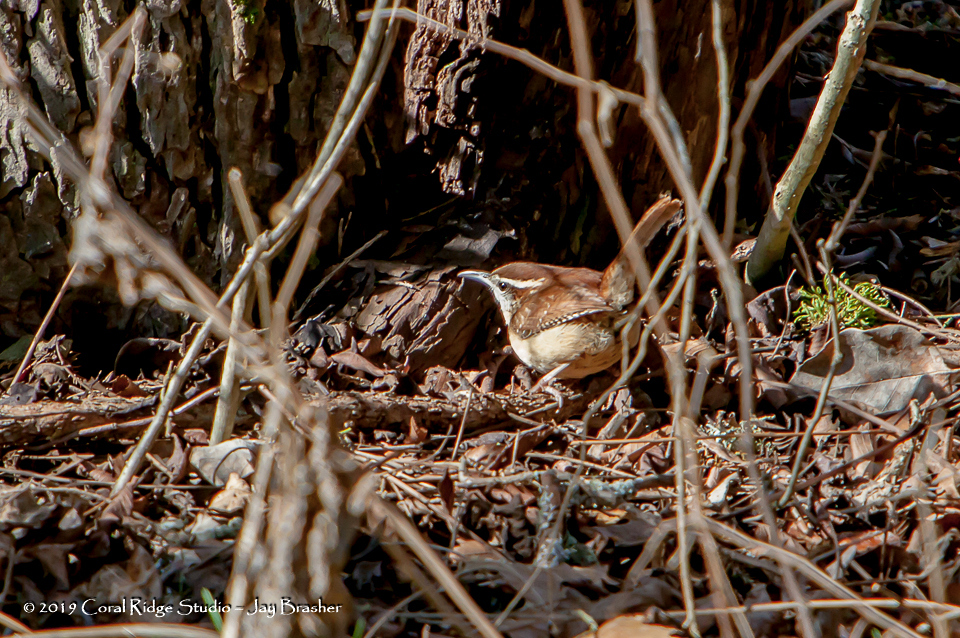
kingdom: Animalia
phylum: Chordata
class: Aves
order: Passeriformes
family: Troglodytidae
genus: Thryothorus
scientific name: Thryothorus ludovicianus
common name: Carolina wren
